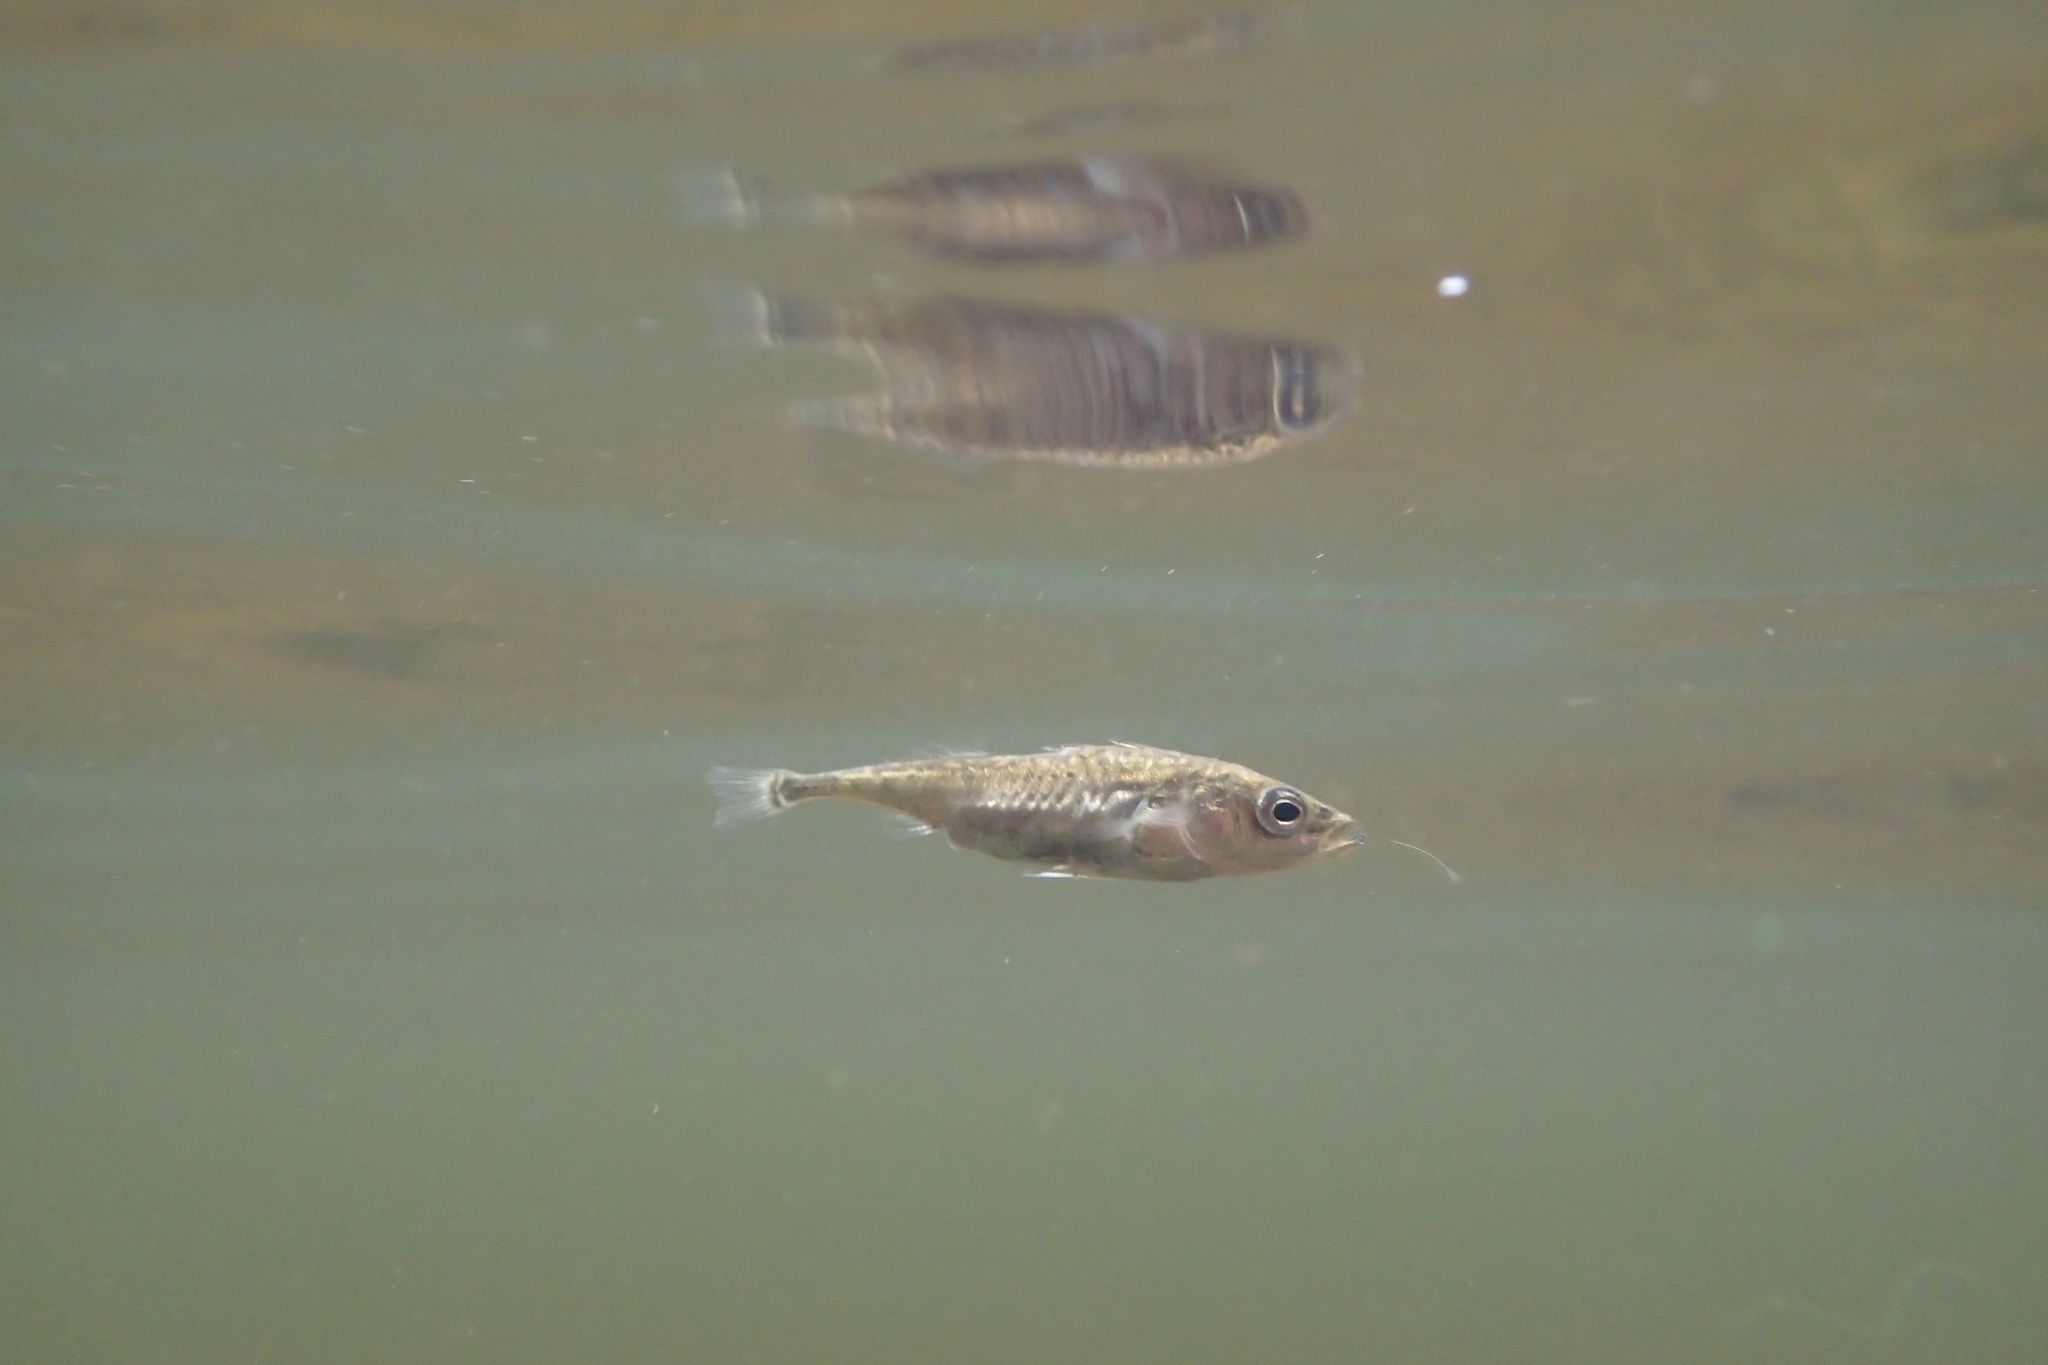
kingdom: Animalia
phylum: Chordata
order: Gasterosteiformes
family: Gasterosteidae
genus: Gasterosteus
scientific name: Gasterosteus aculeatus
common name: Three-spined stickleback
